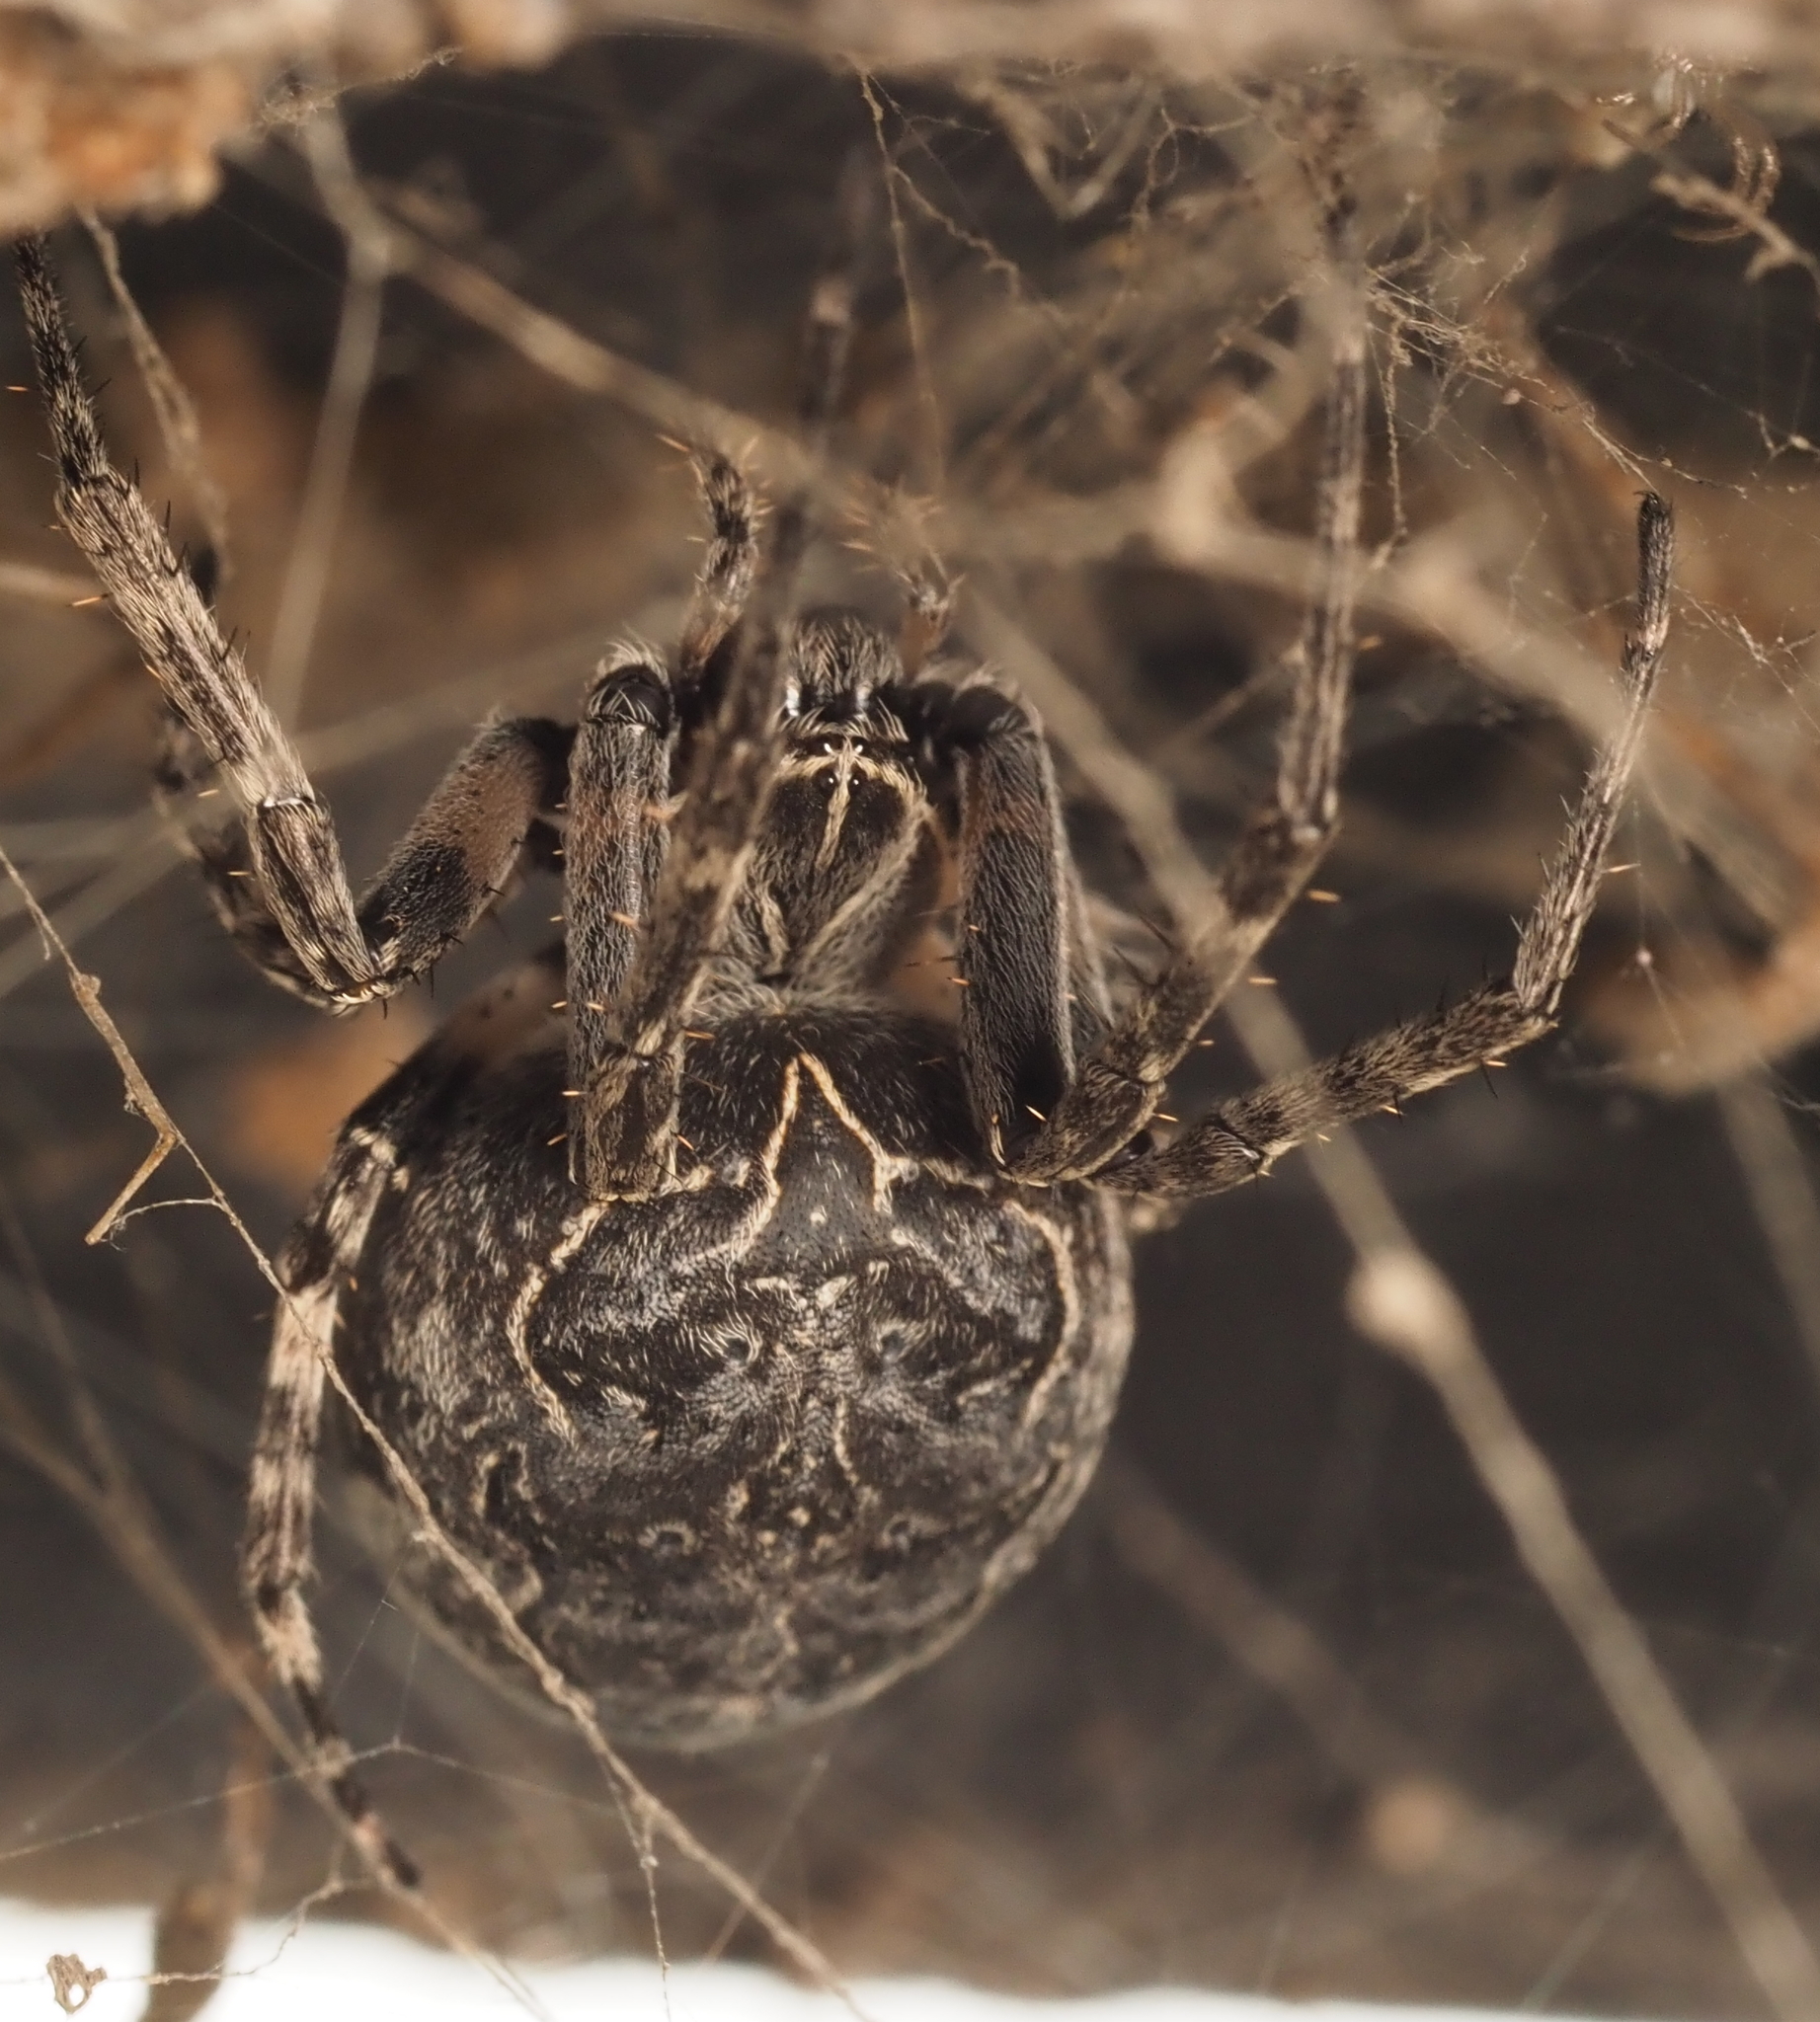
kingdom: Animalia
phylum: Arthropoda
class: Arachnida
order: Araneae
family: Araneidae
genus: Larinioides
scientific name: Larinioides sclopetarius
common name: Bridge orbweaver
